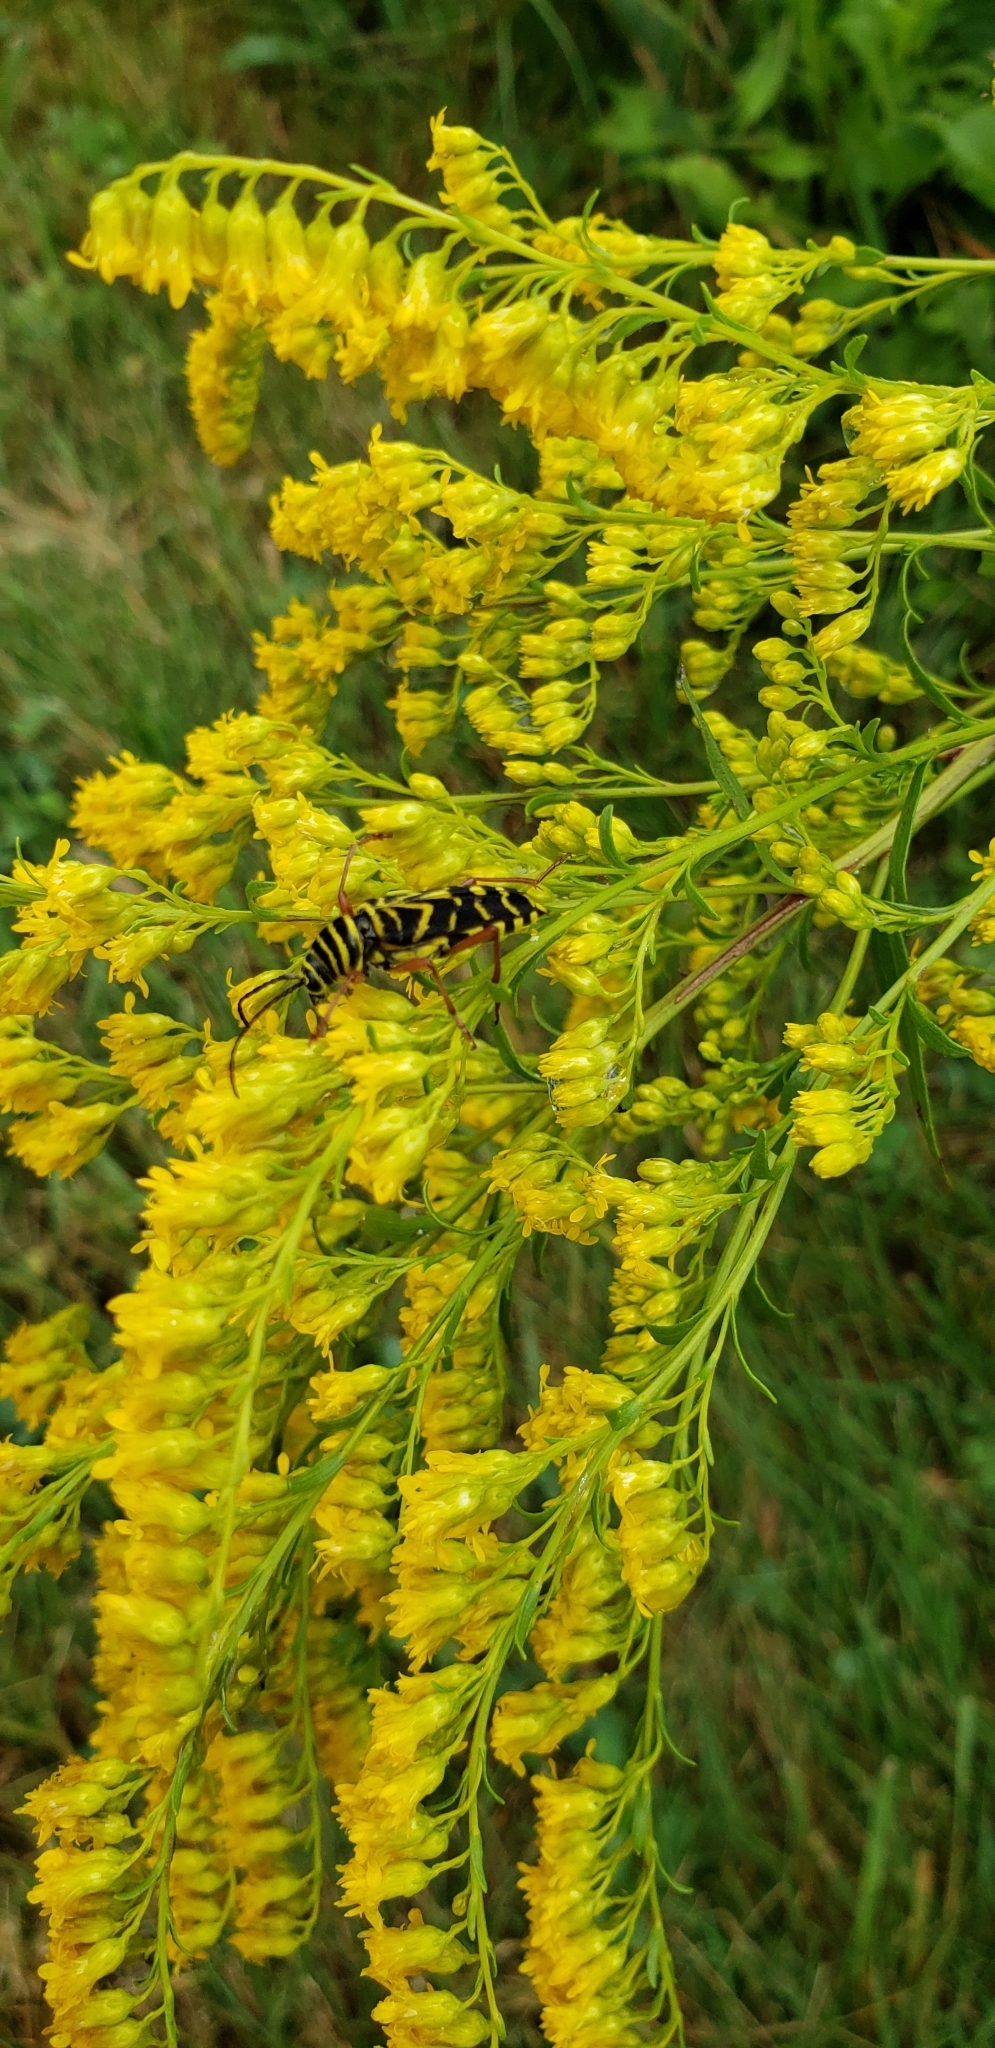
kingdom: Animalia
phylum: Arthropoda
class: Insecta
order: Coleoptera
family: Cerambycidae
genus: Megacyllene
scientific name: Megacyllene robiniae
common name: Locust borer
